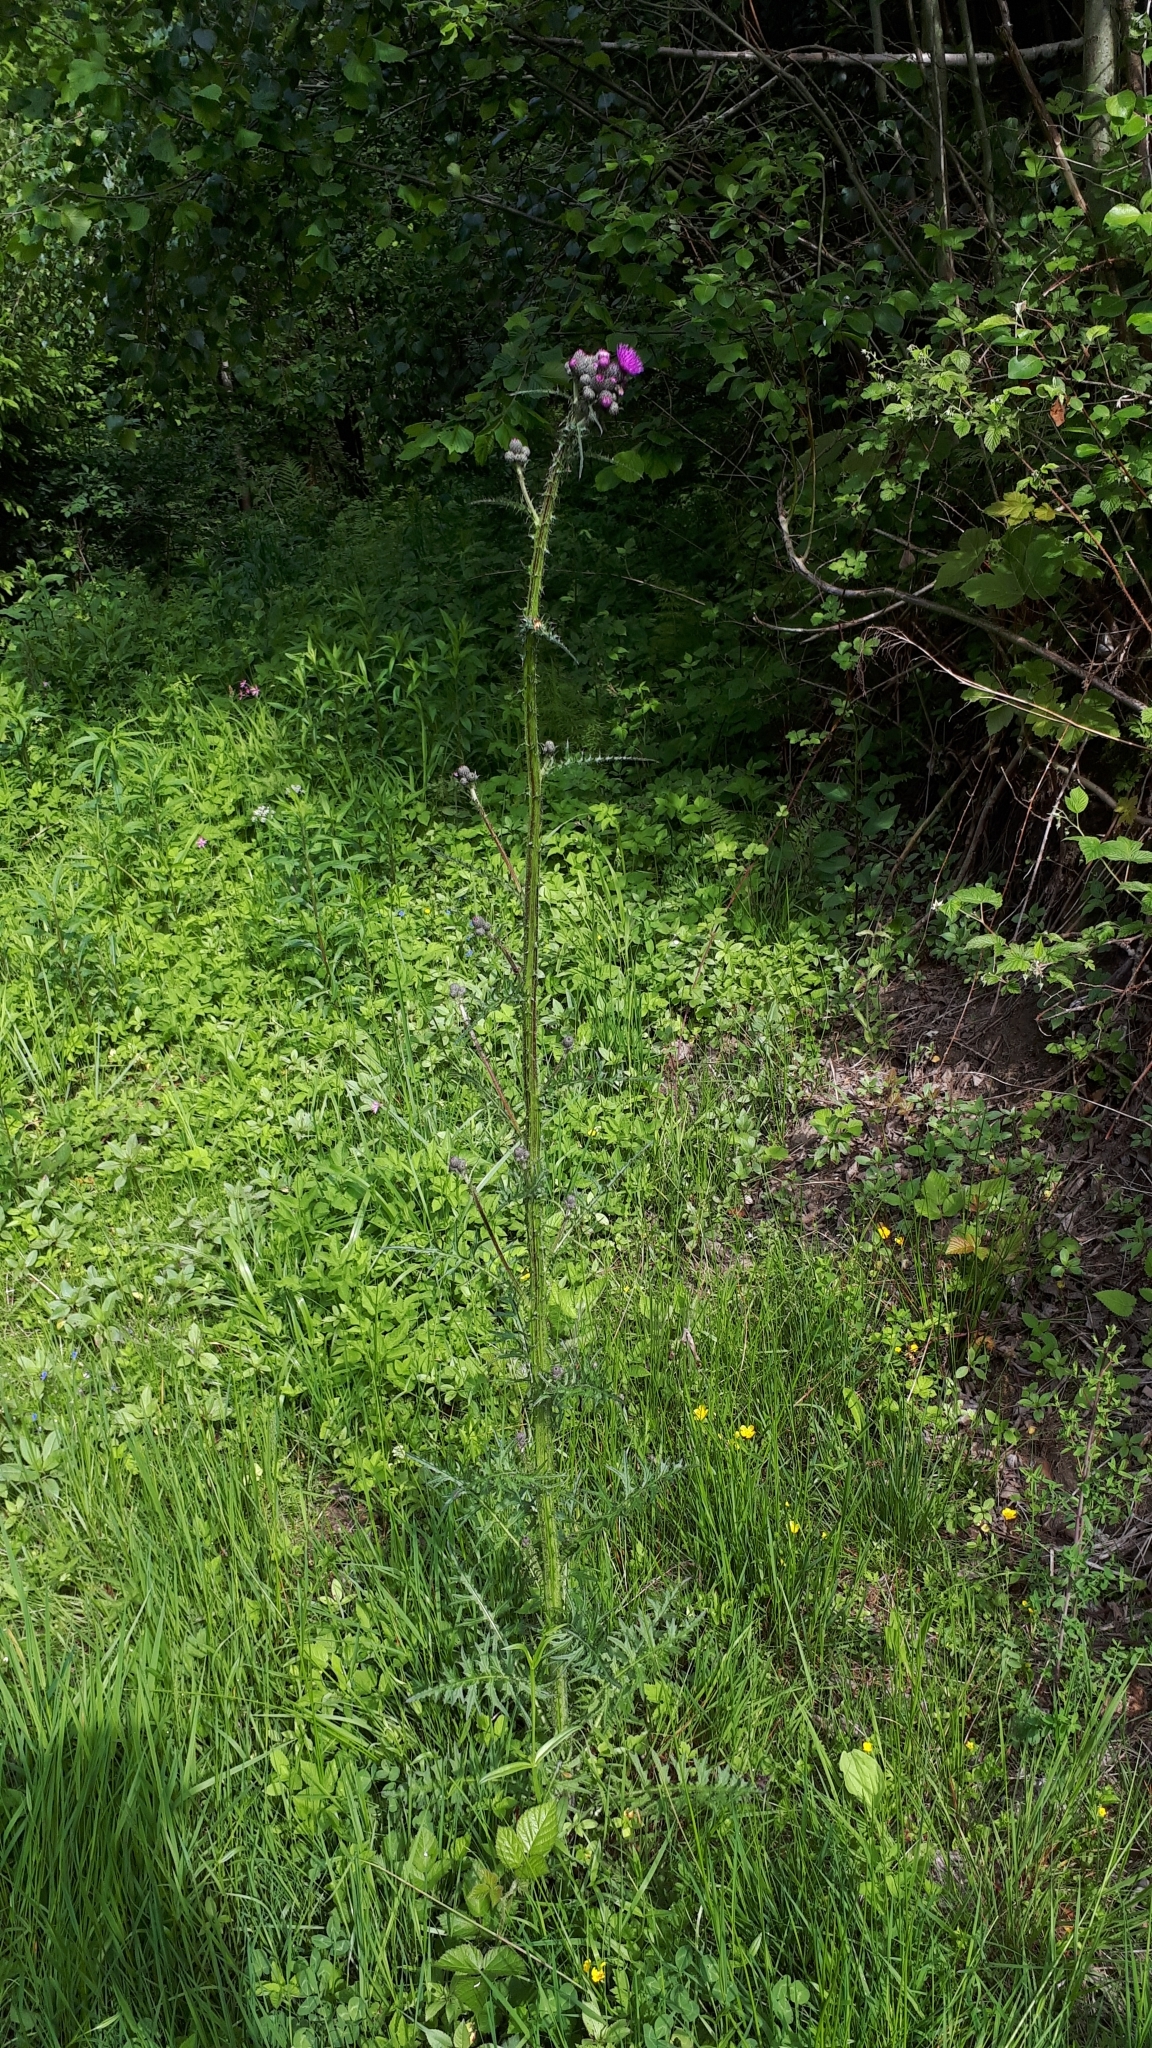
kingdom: Plantae
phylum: Tracheophyta
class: Magnoliopsida
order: Asterales
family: Asteraceae
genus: Cirsium
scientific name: Cirsium palustre
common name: Marsh thistle
